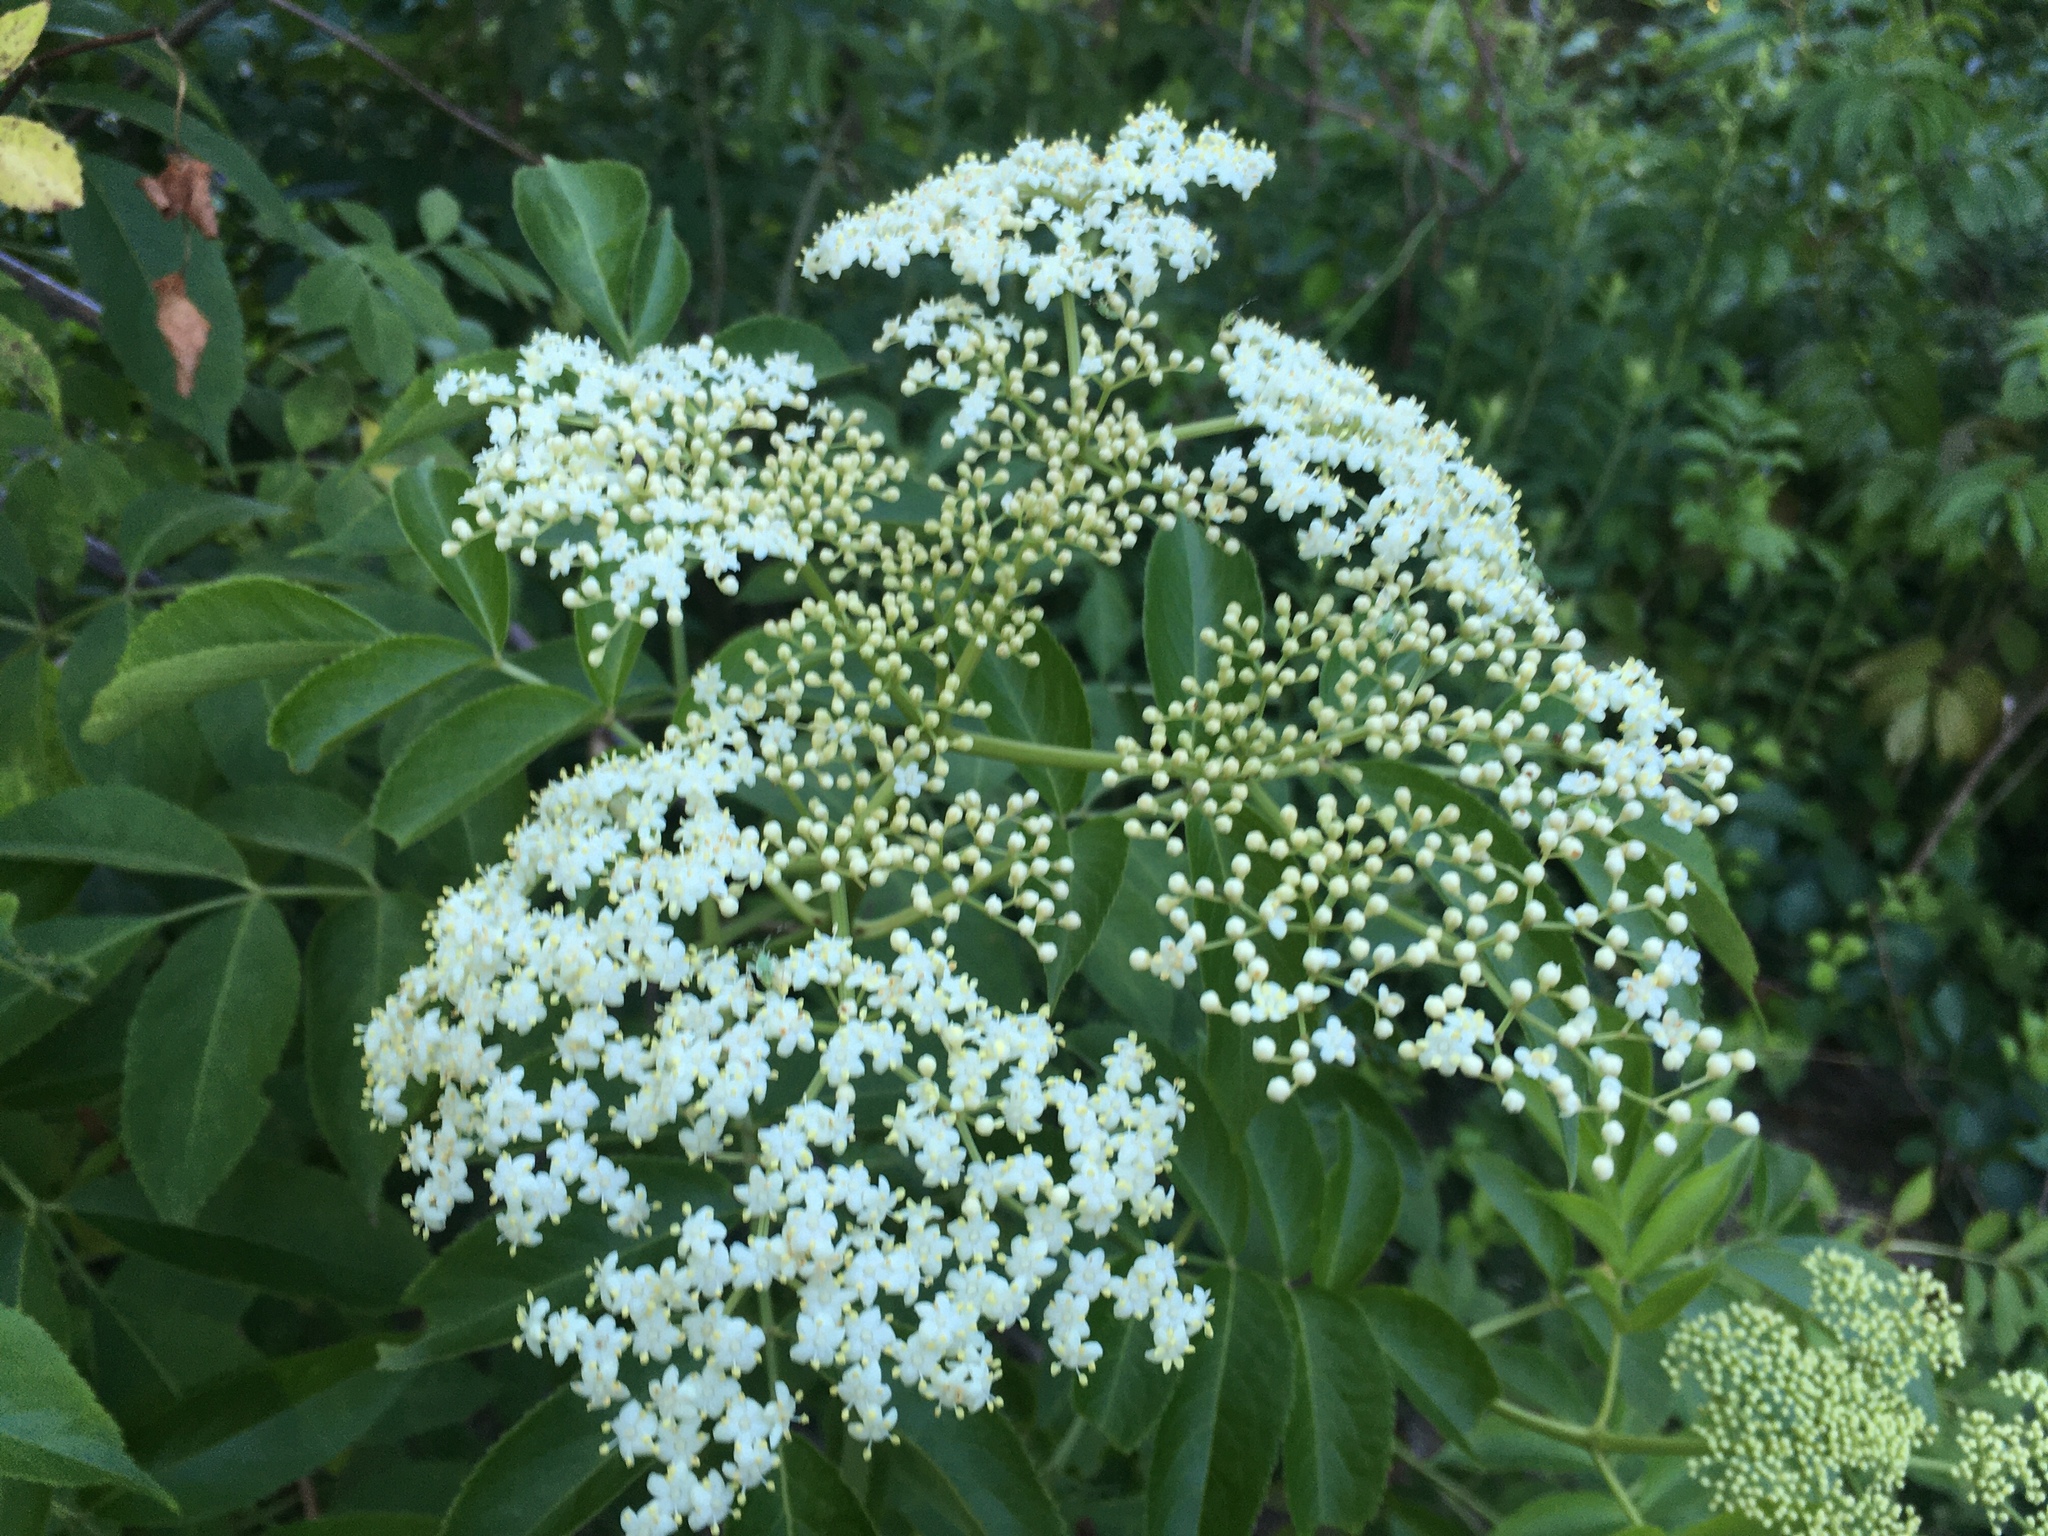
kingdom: Plantae
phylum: Tracheophyta
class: Magnoliopsida
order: Dipsacales
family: Viburnaceae
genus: Sambucus
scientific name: Sambucus canadensis
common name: American elder
